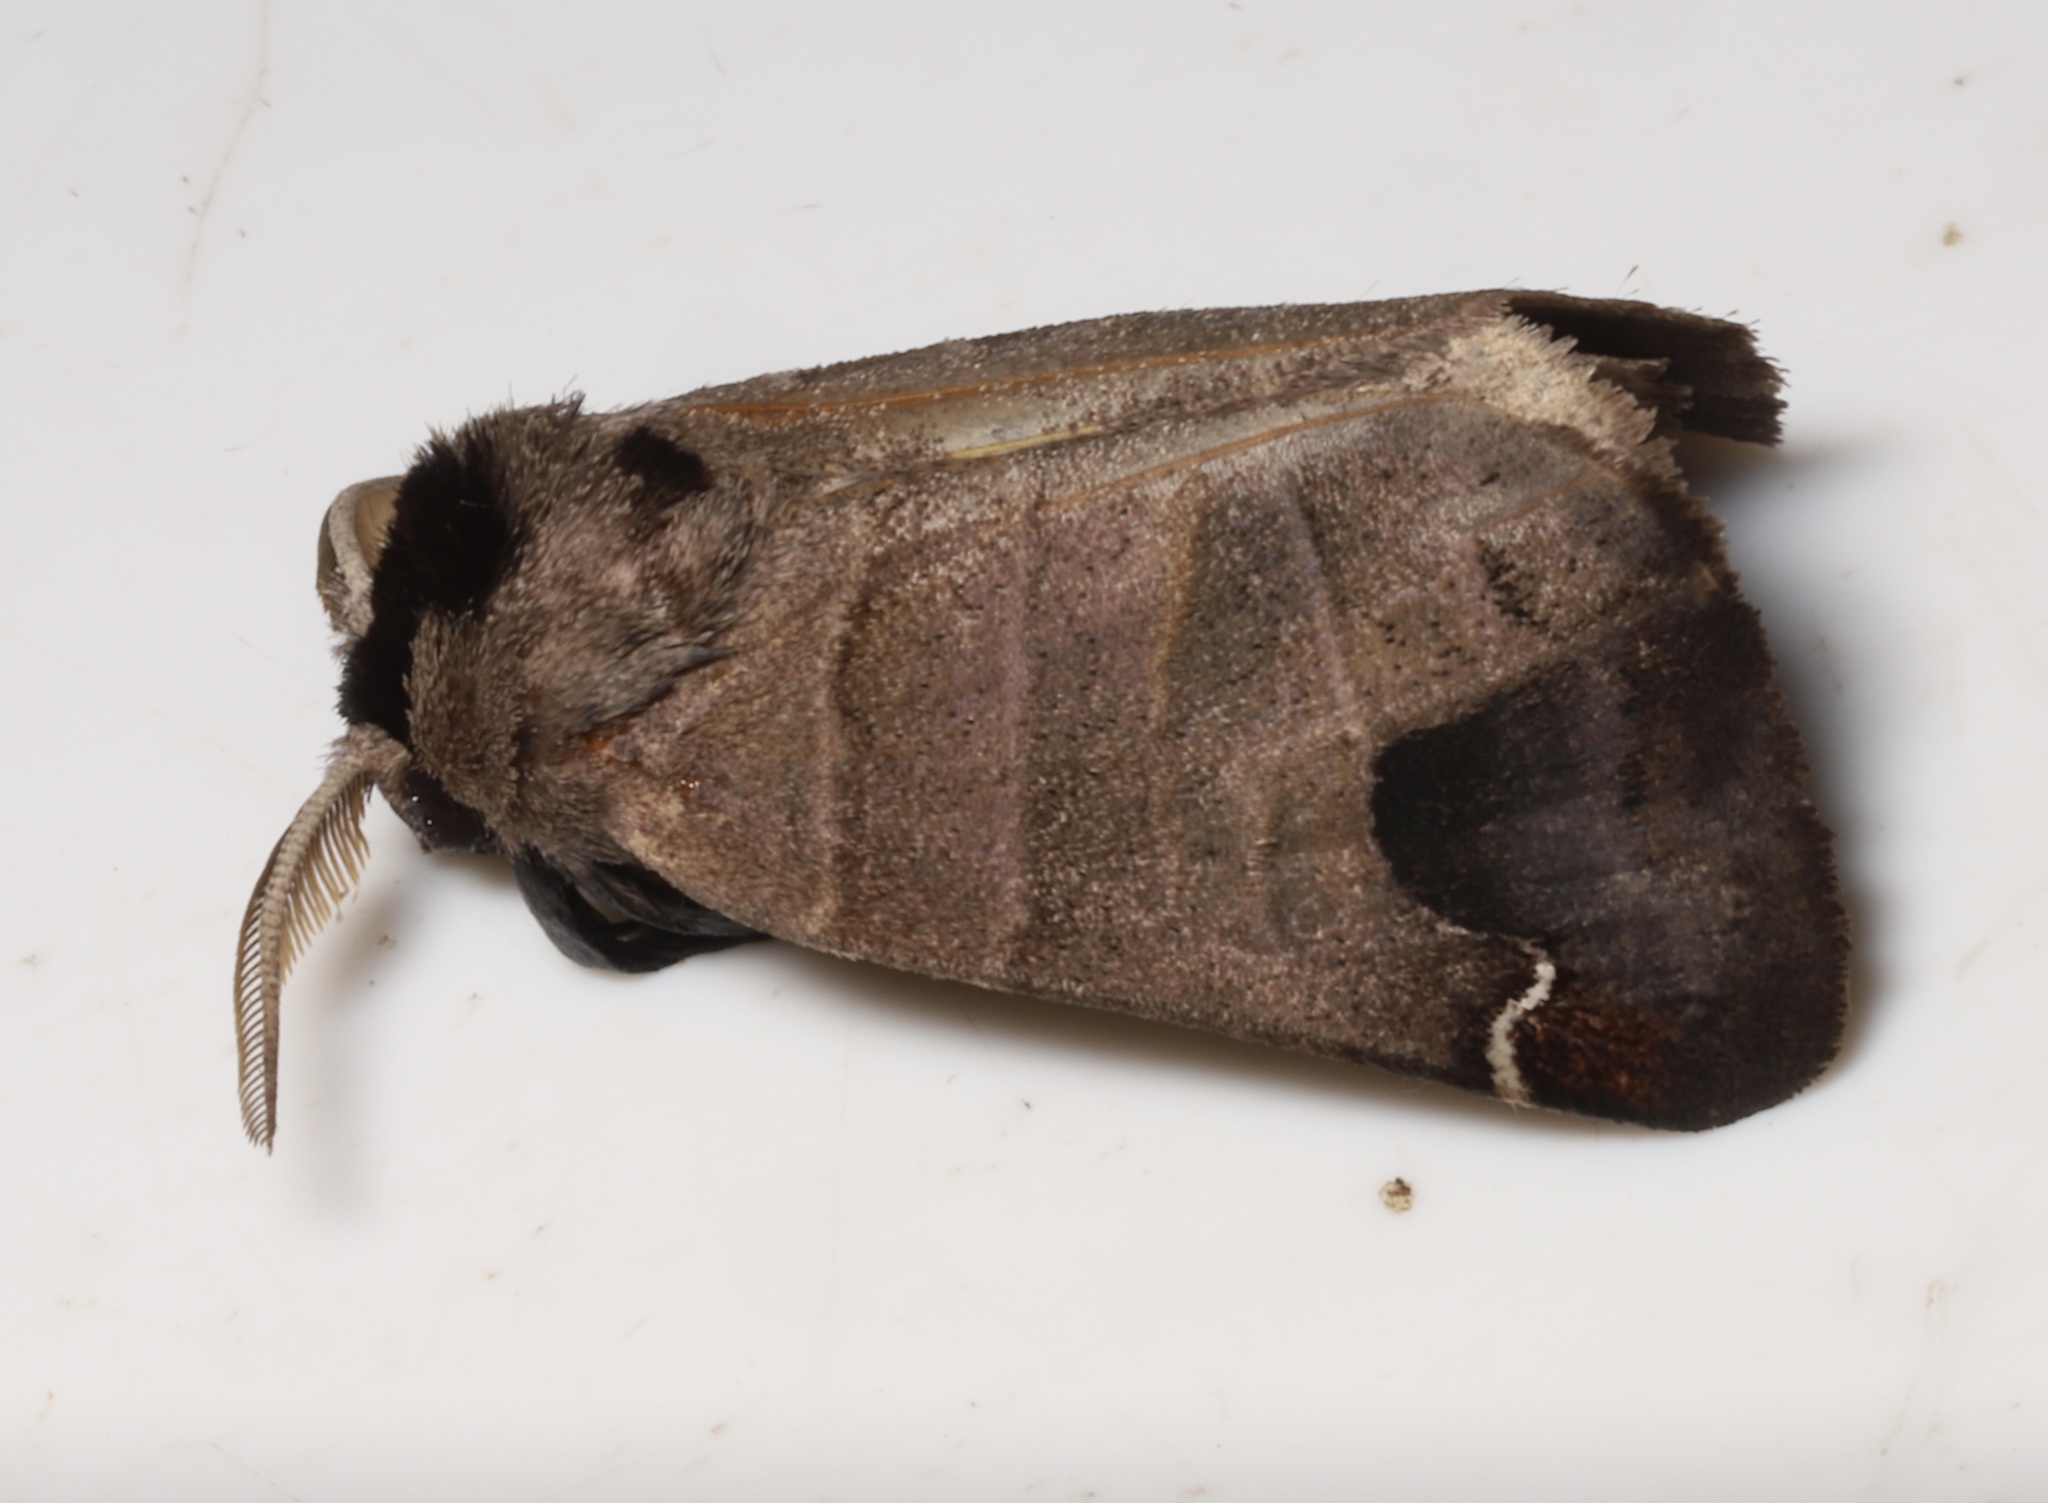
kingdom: Animalia
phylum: Arthropoda
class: Insecta
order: Lepidoptera
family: Notodontidae
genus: Clostera
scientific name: Clostera albosigma
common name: Sigmoid prominent
